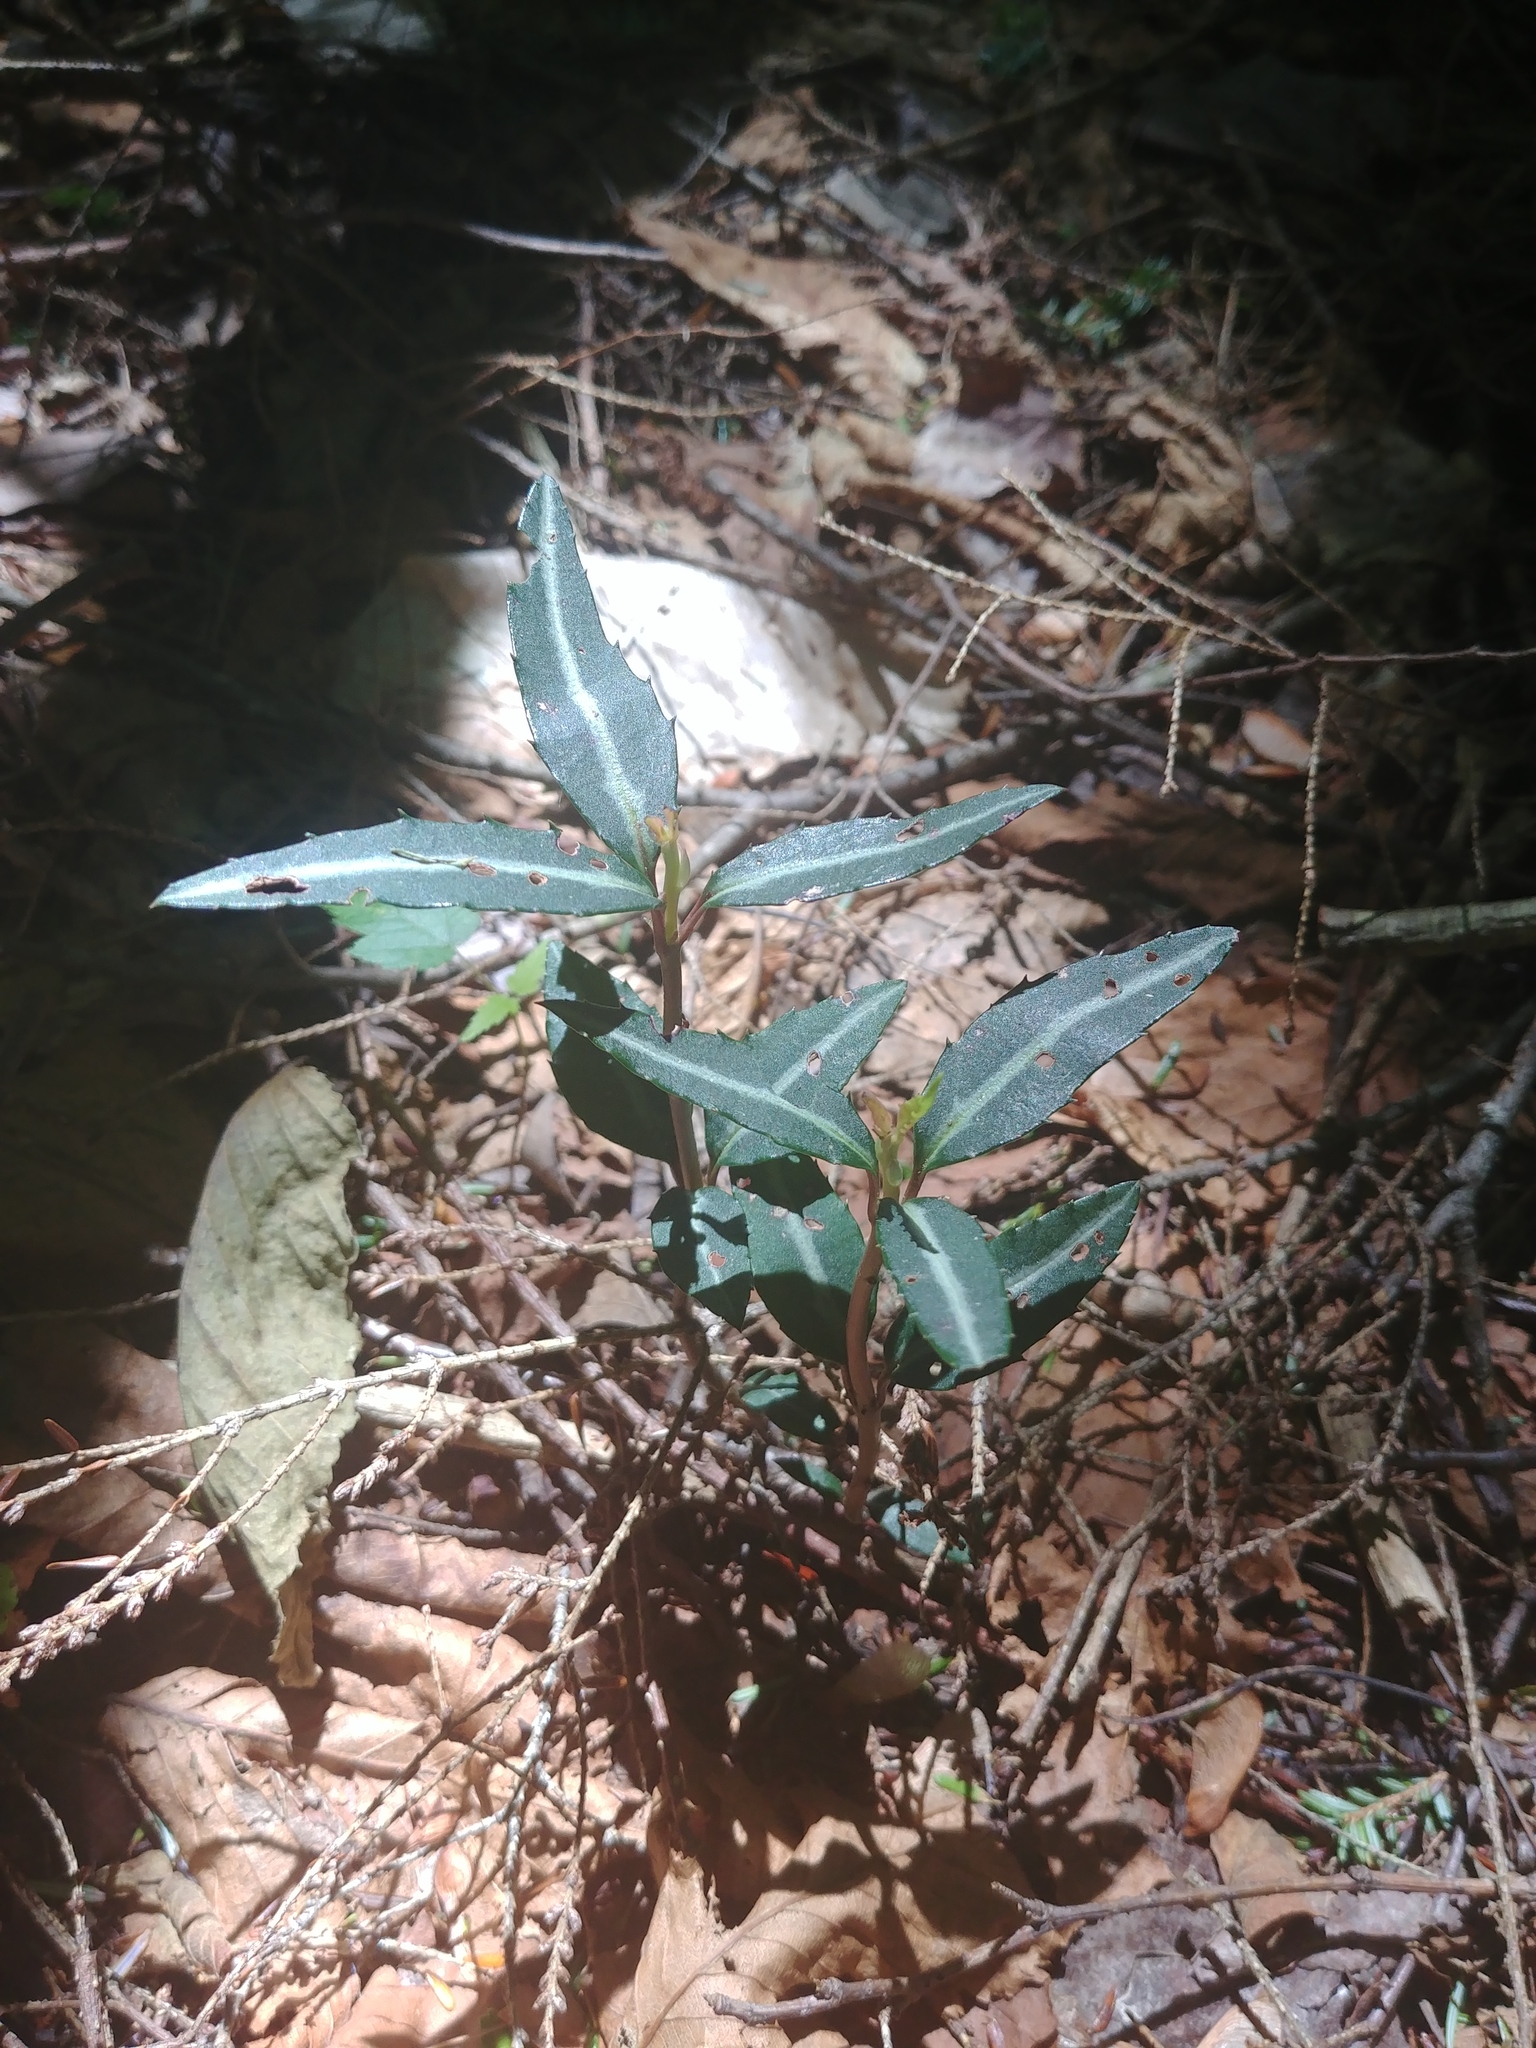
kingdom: Plantae
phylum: Tracheophyta
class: Magnoliopsida
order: Ericales
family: Ericaceae
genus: Chimaphila
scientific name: Chimaphila maculata
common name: Spotted pipsissewa
